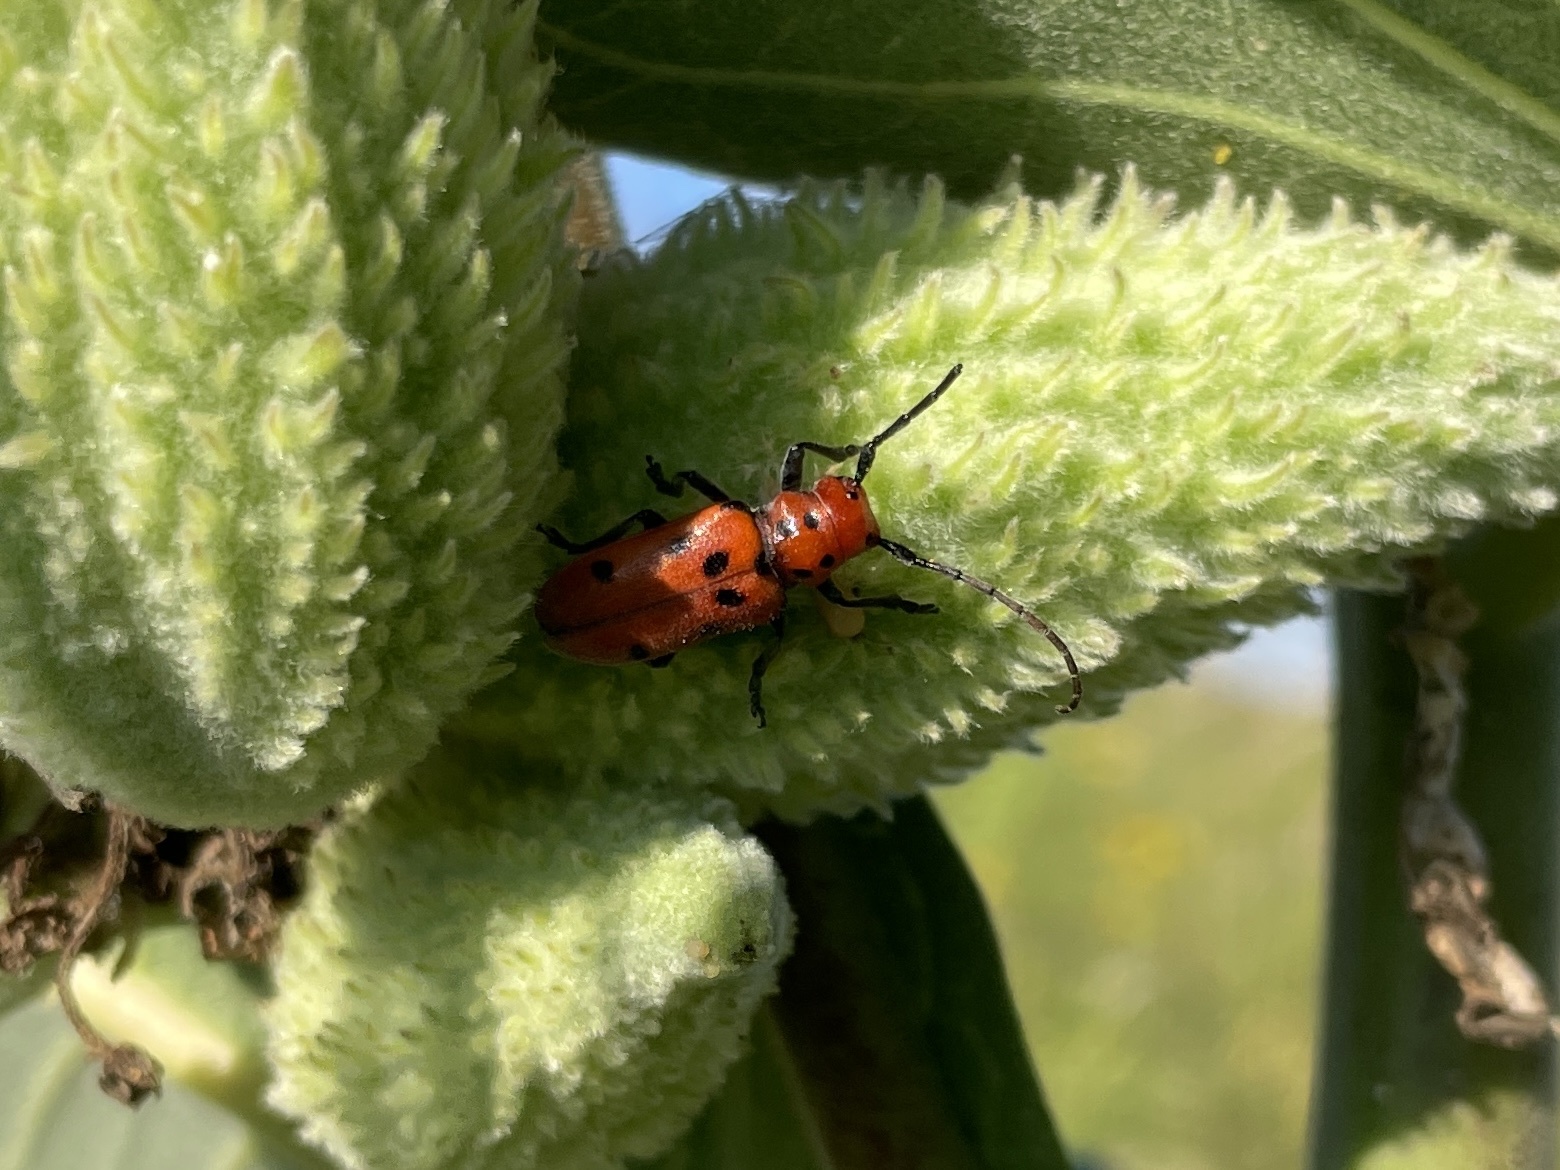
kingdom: Animalia
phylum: Arthropoda
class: Insecta
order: Coleoptera
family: Cerambycidae
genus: Tetraopes
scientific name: Tetraopes tetrophthalmus
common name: Red milkweed beetle
